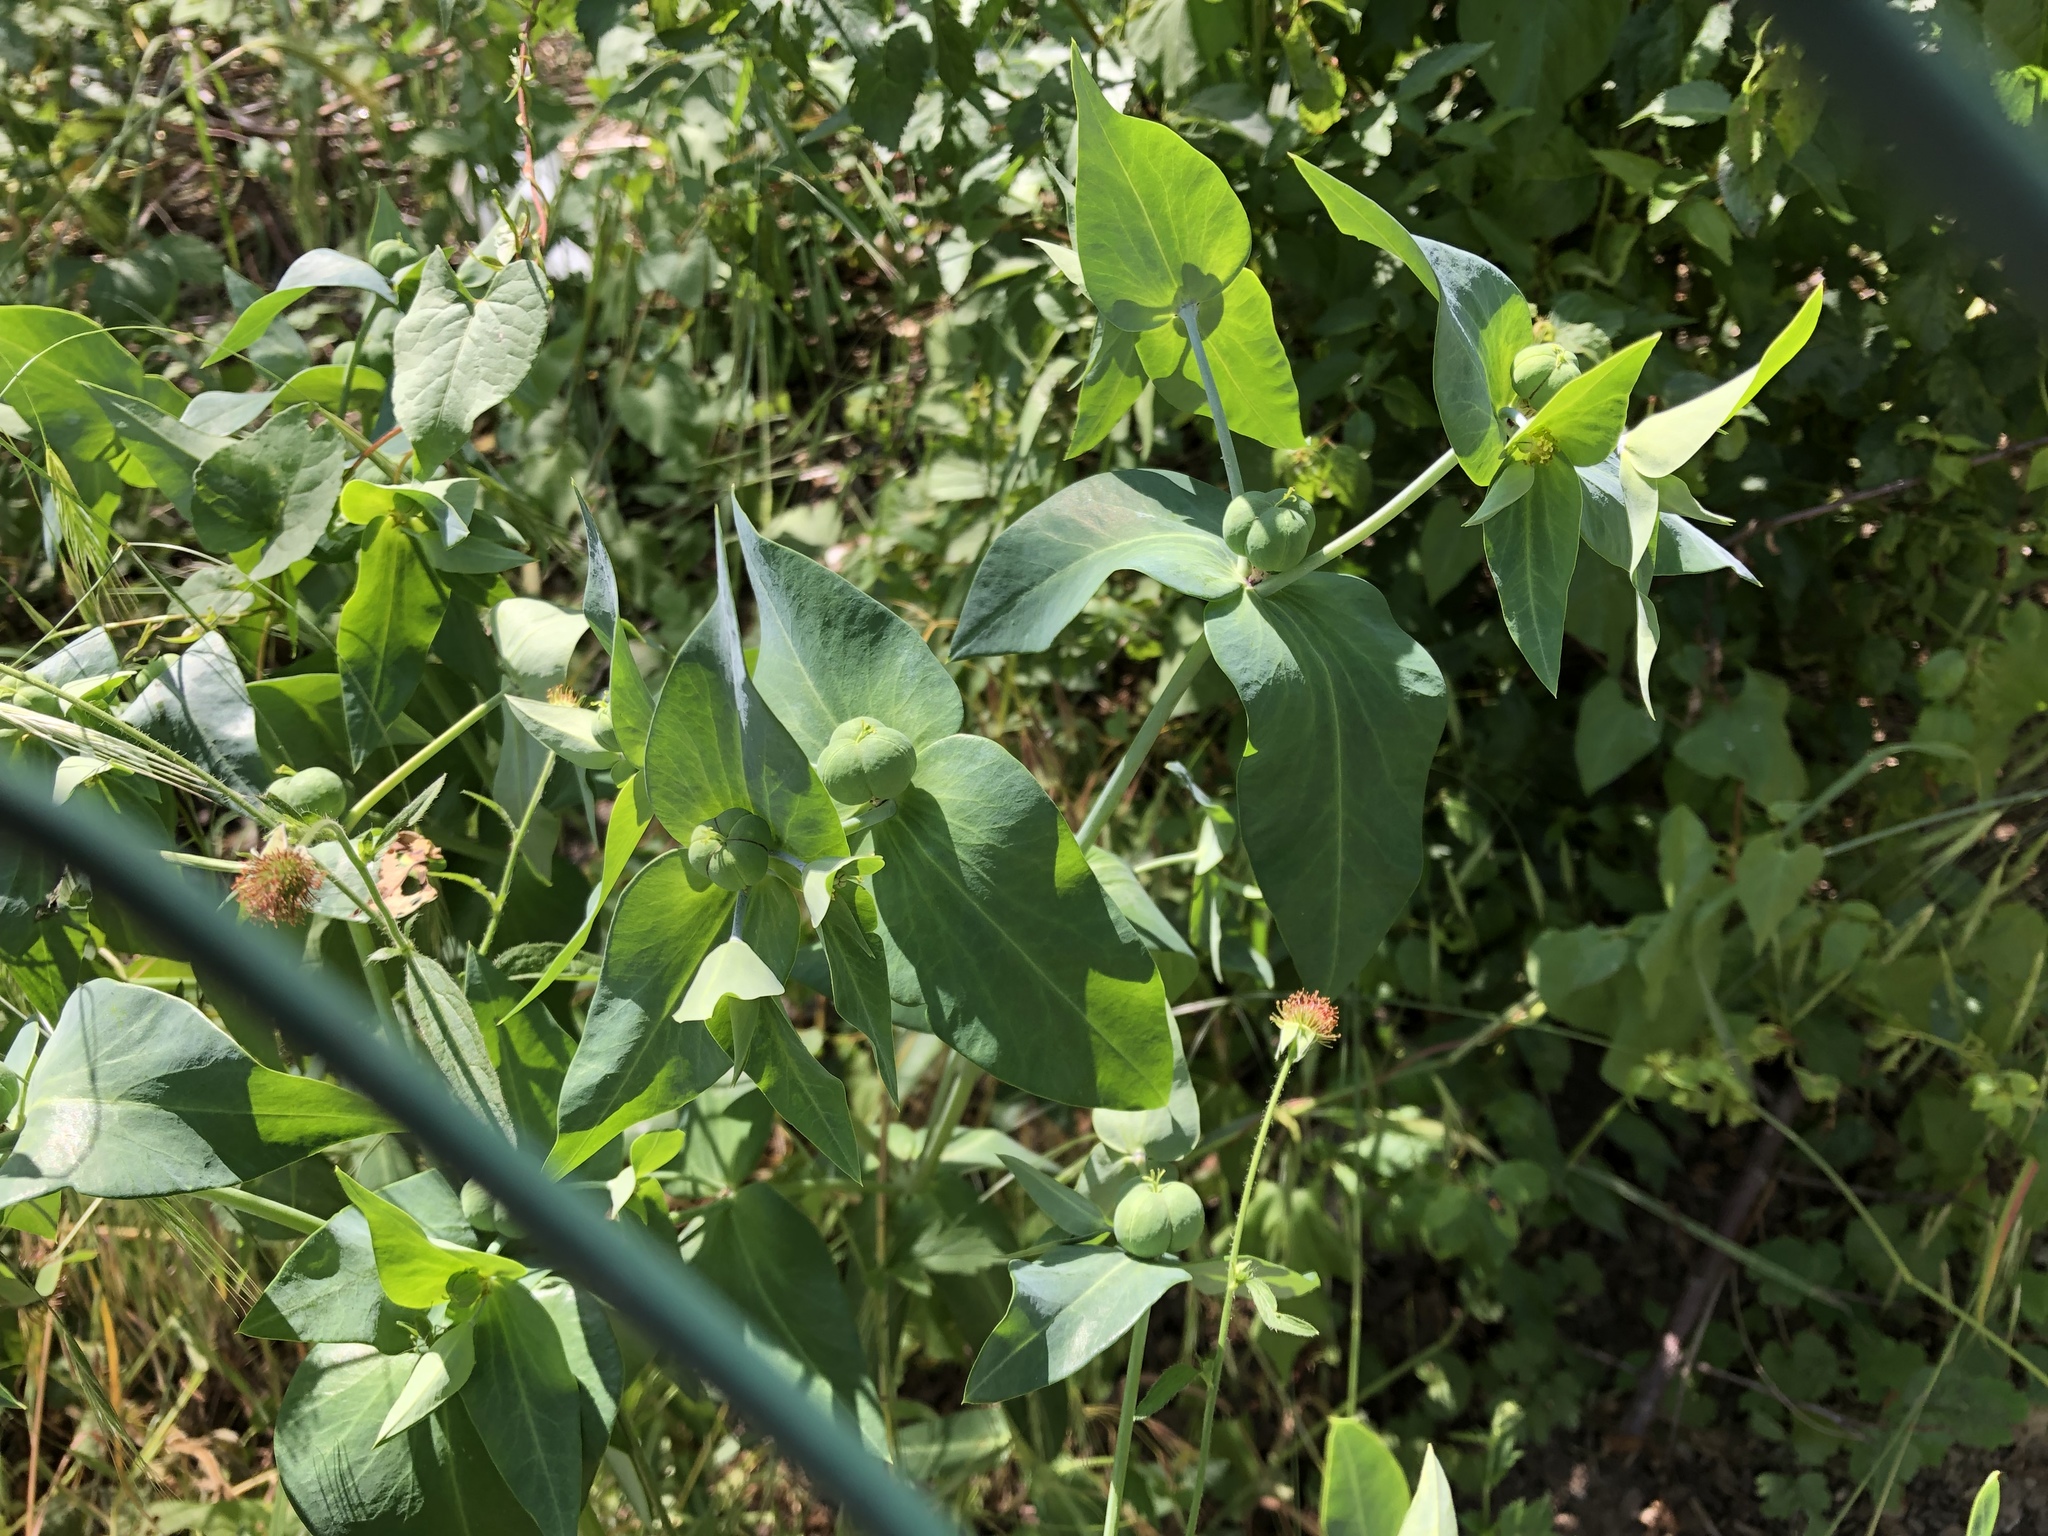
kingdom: Plantae
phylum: Tracheophyta
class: Magnoliopsida
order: Malpighiales
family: Euphorbiaceae
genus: Euphorbia
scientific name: Euphorbia lathyris
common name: Caper spurge
